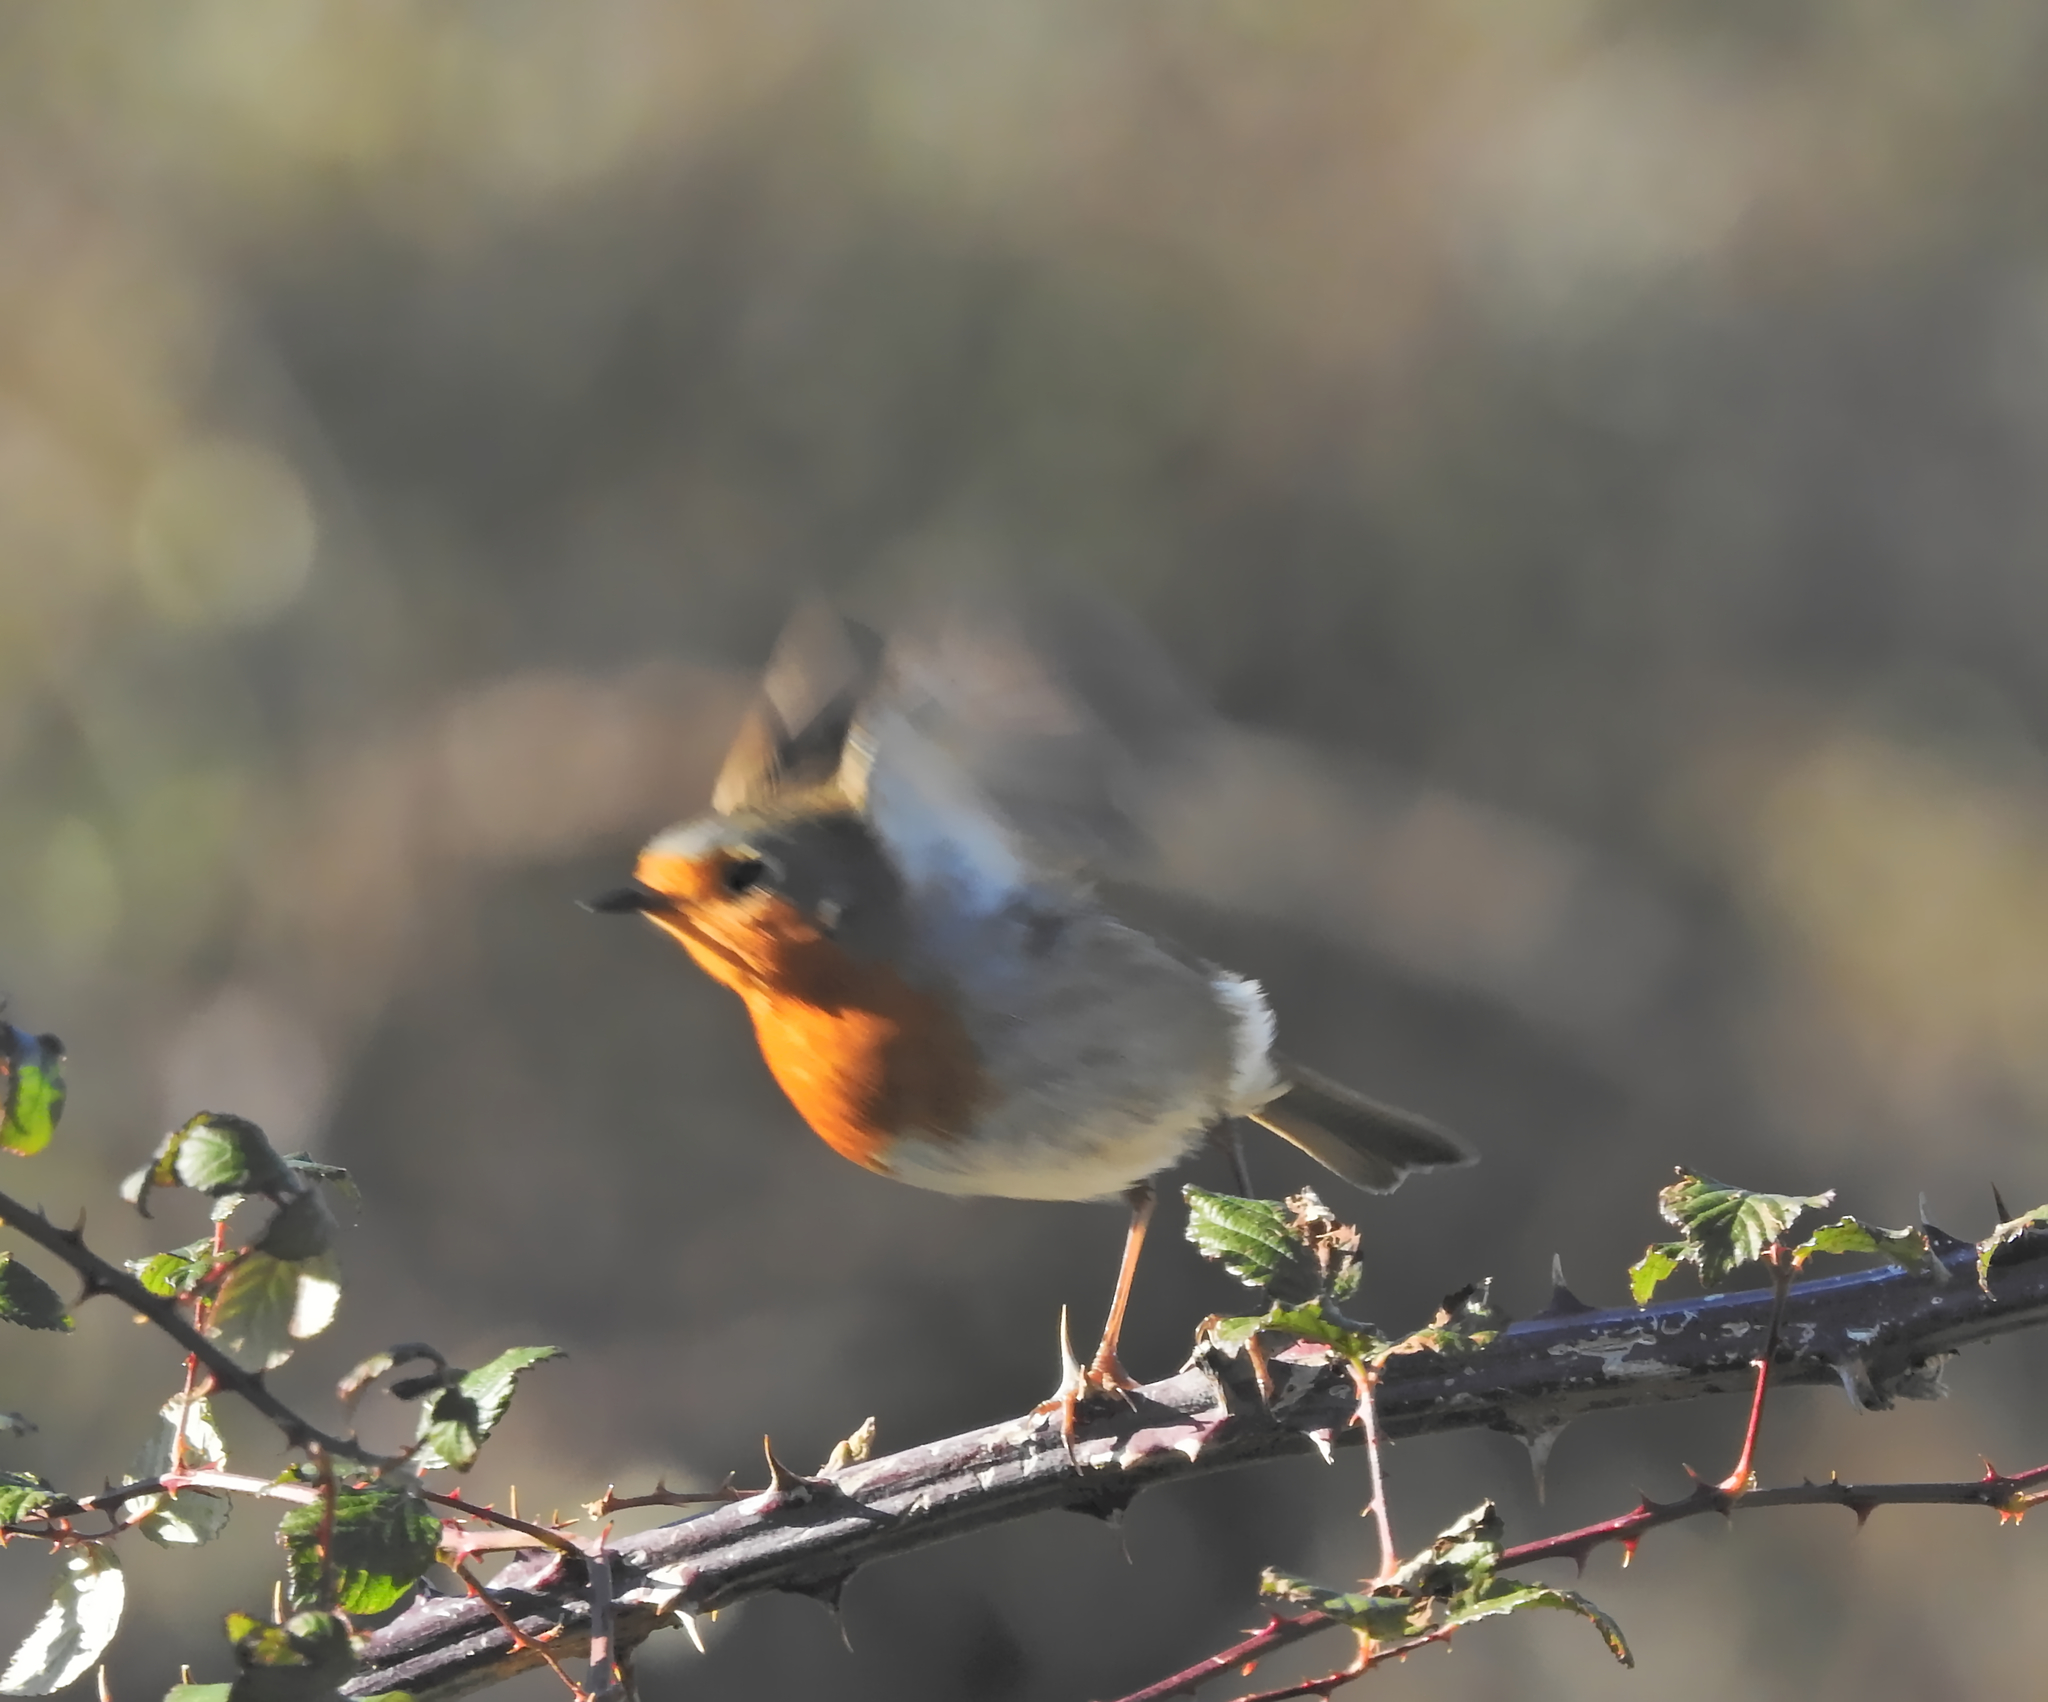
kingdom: Animalia
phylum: Chordata
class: Aves
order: Passeriformes
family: Muscicapidae
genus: Erithacus
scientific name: Erithacus rubecula
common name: European robin
